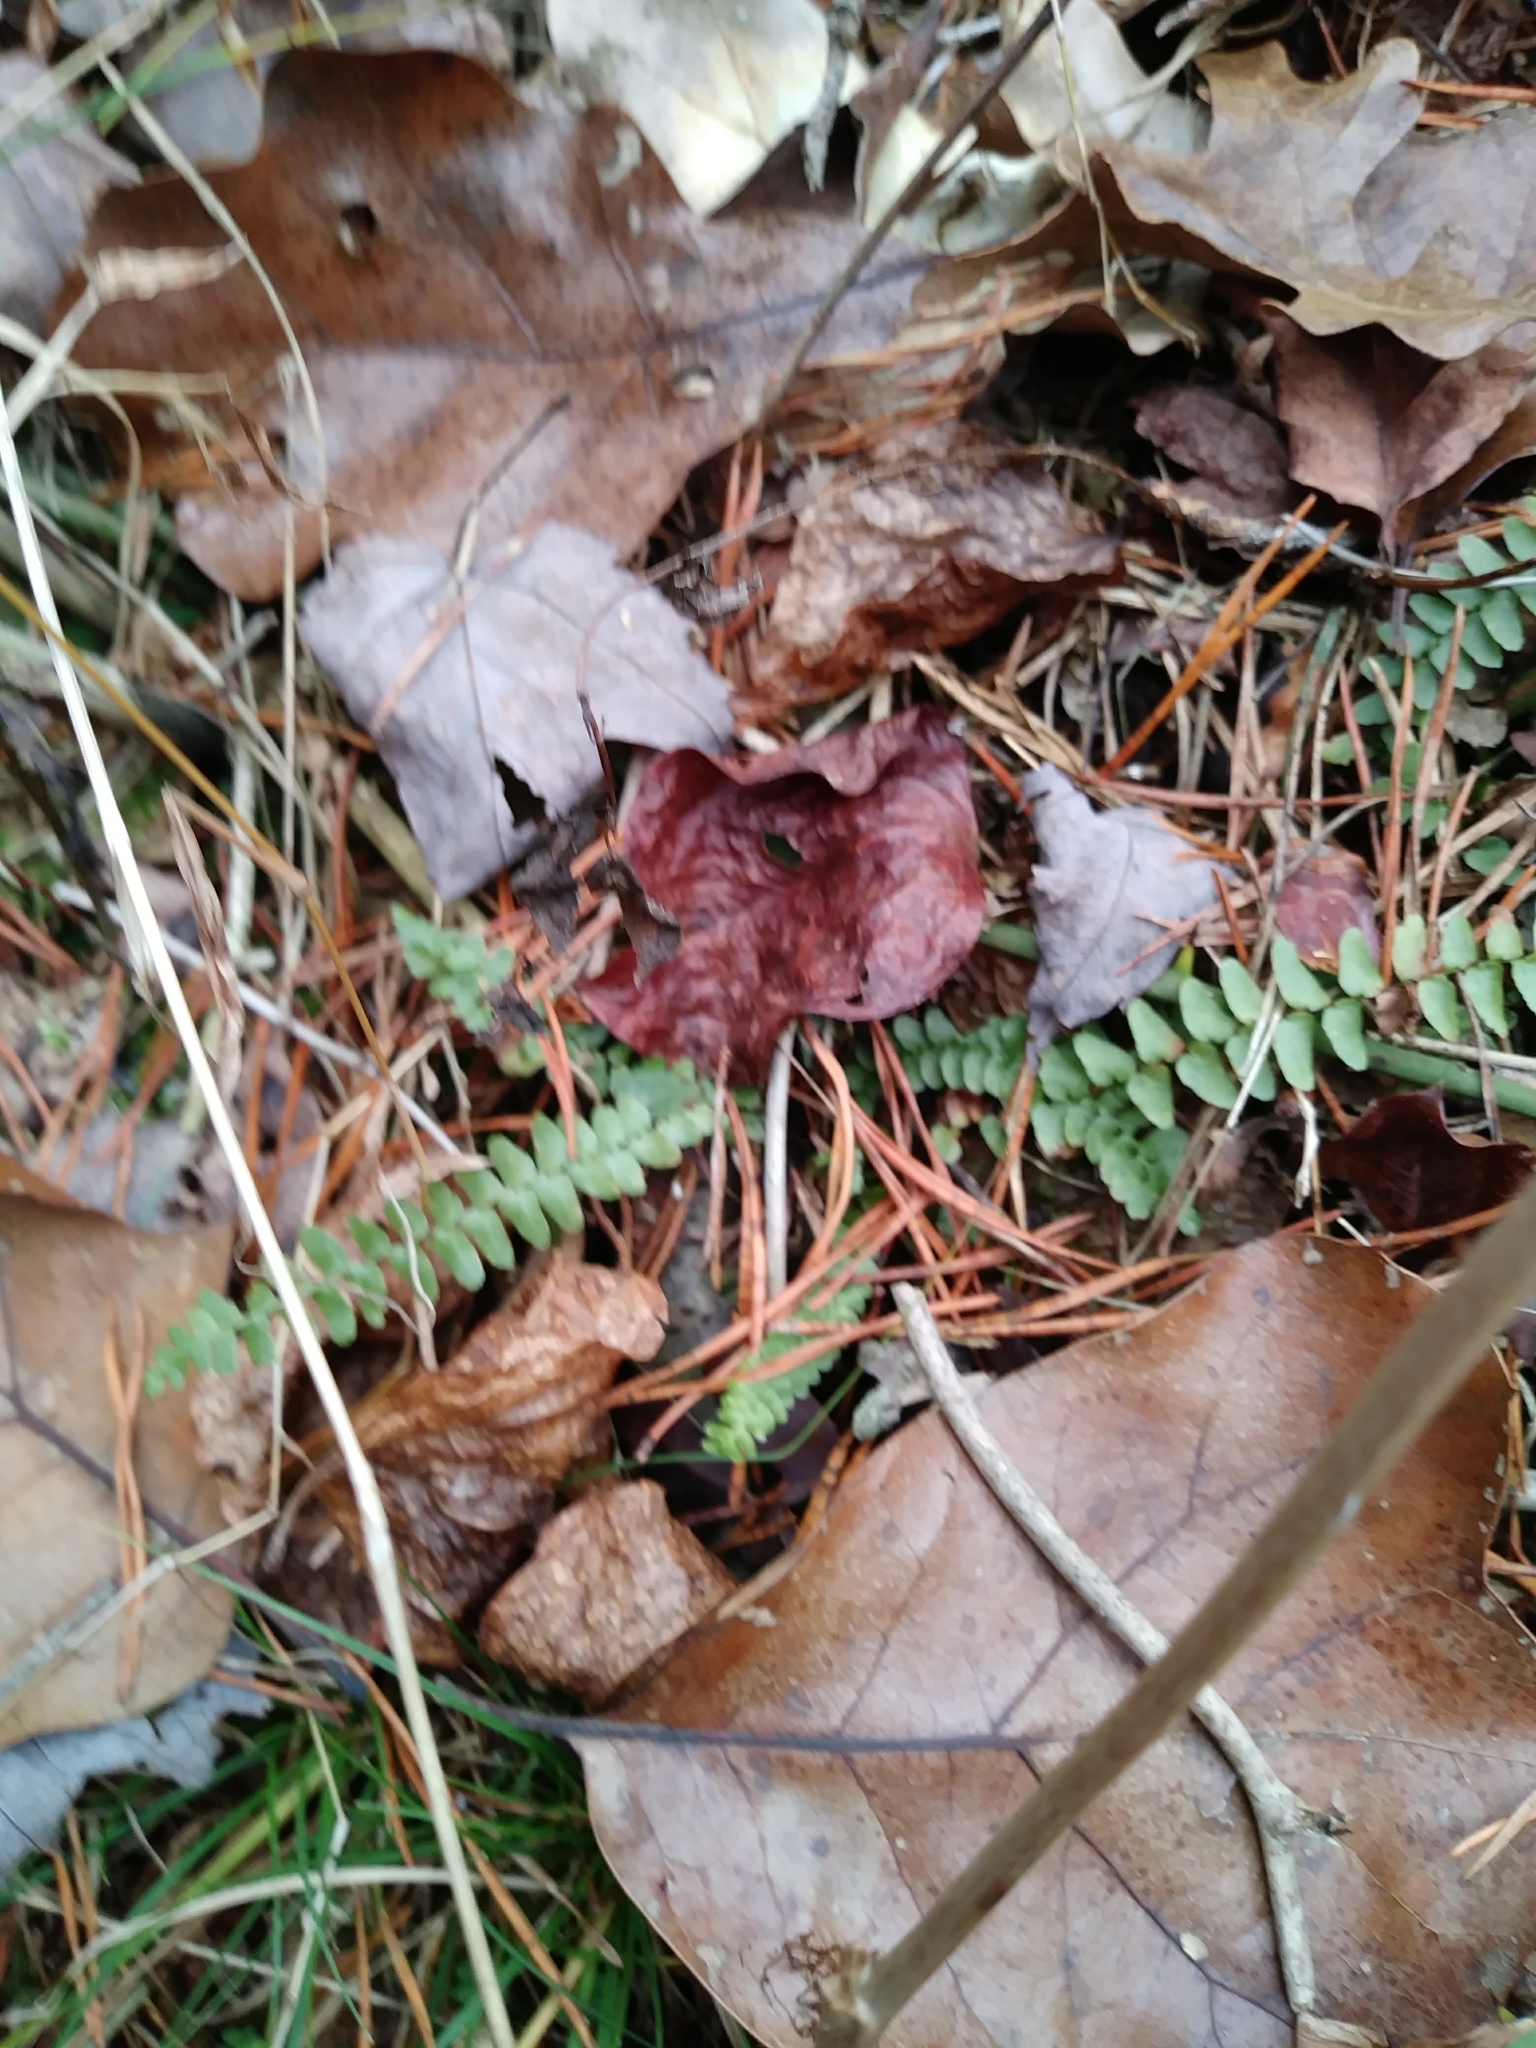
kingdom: Plantae
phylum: Tracheophyta
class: Polypodiopsida
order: Polypodiales
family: Aspleniaceae
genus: Asplenium
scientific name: Asplenium platyneuron
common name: Ebony spleenwort
